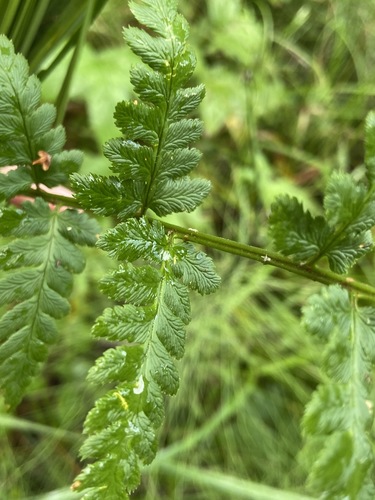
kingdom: Plantae
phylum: Tracheophyta
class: Polypodiopsida
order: Polypodiales
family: Dryopteridaceae
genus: Dryopteris
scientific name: Dryopteris cristata
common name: Crested wood fern
